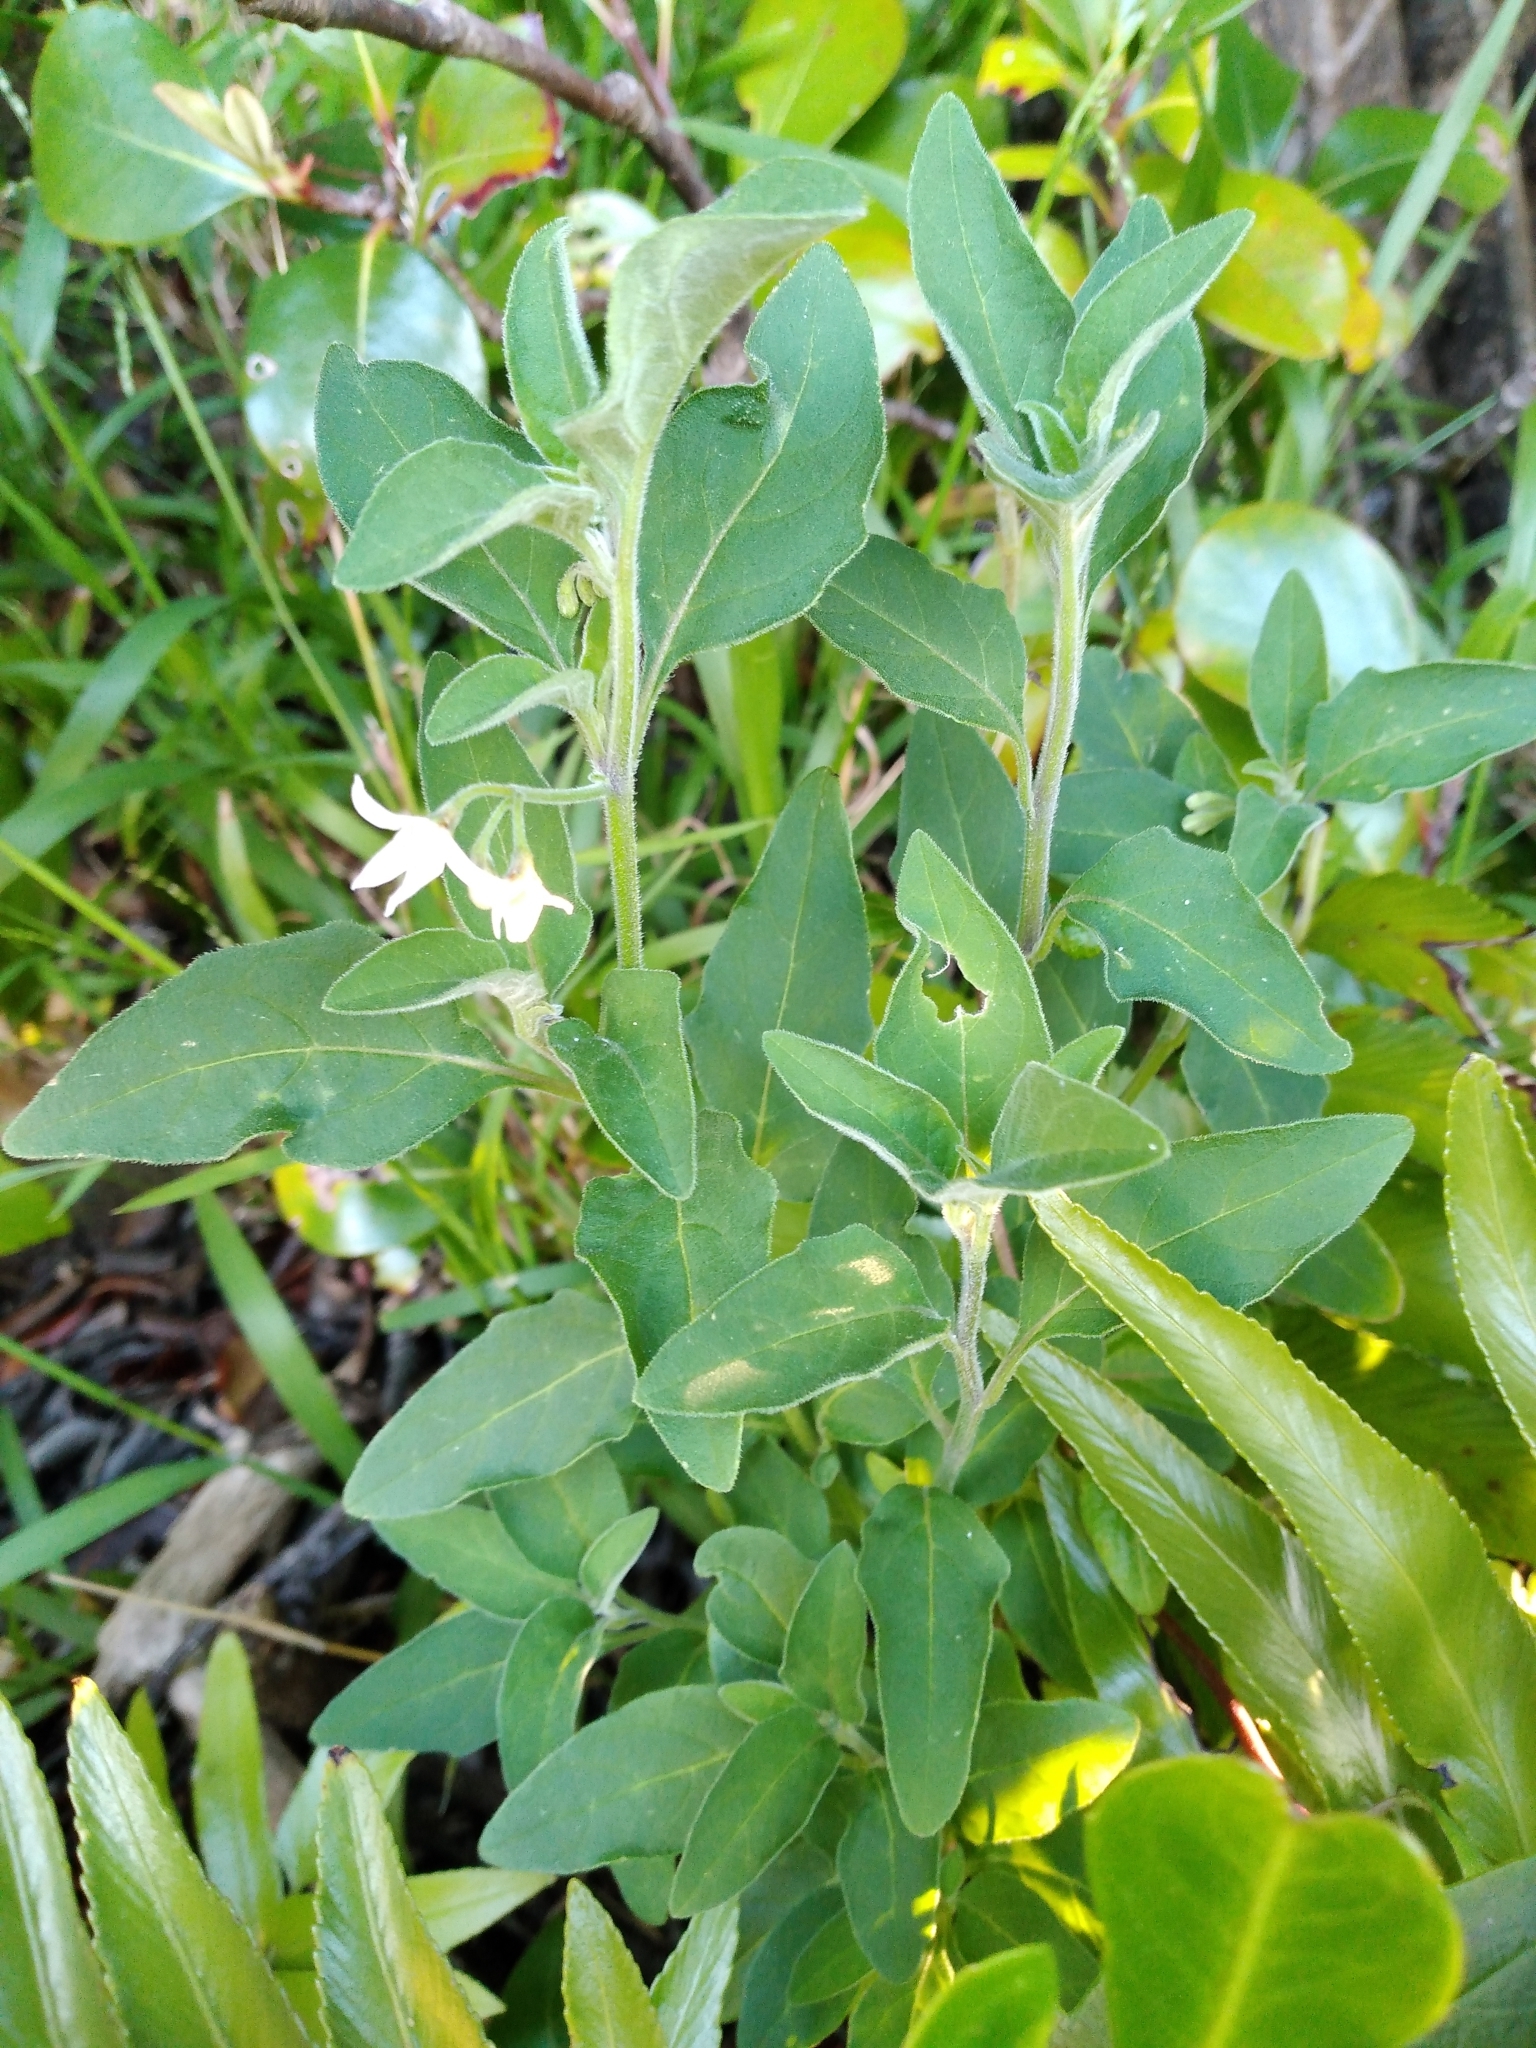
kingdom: Plantae
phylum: Tracheophyta
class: Magnoliopsida
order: Solanales
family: Solanaceae
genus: Solanum
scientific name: Solanum chenopodioides
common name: Tall nightshade
